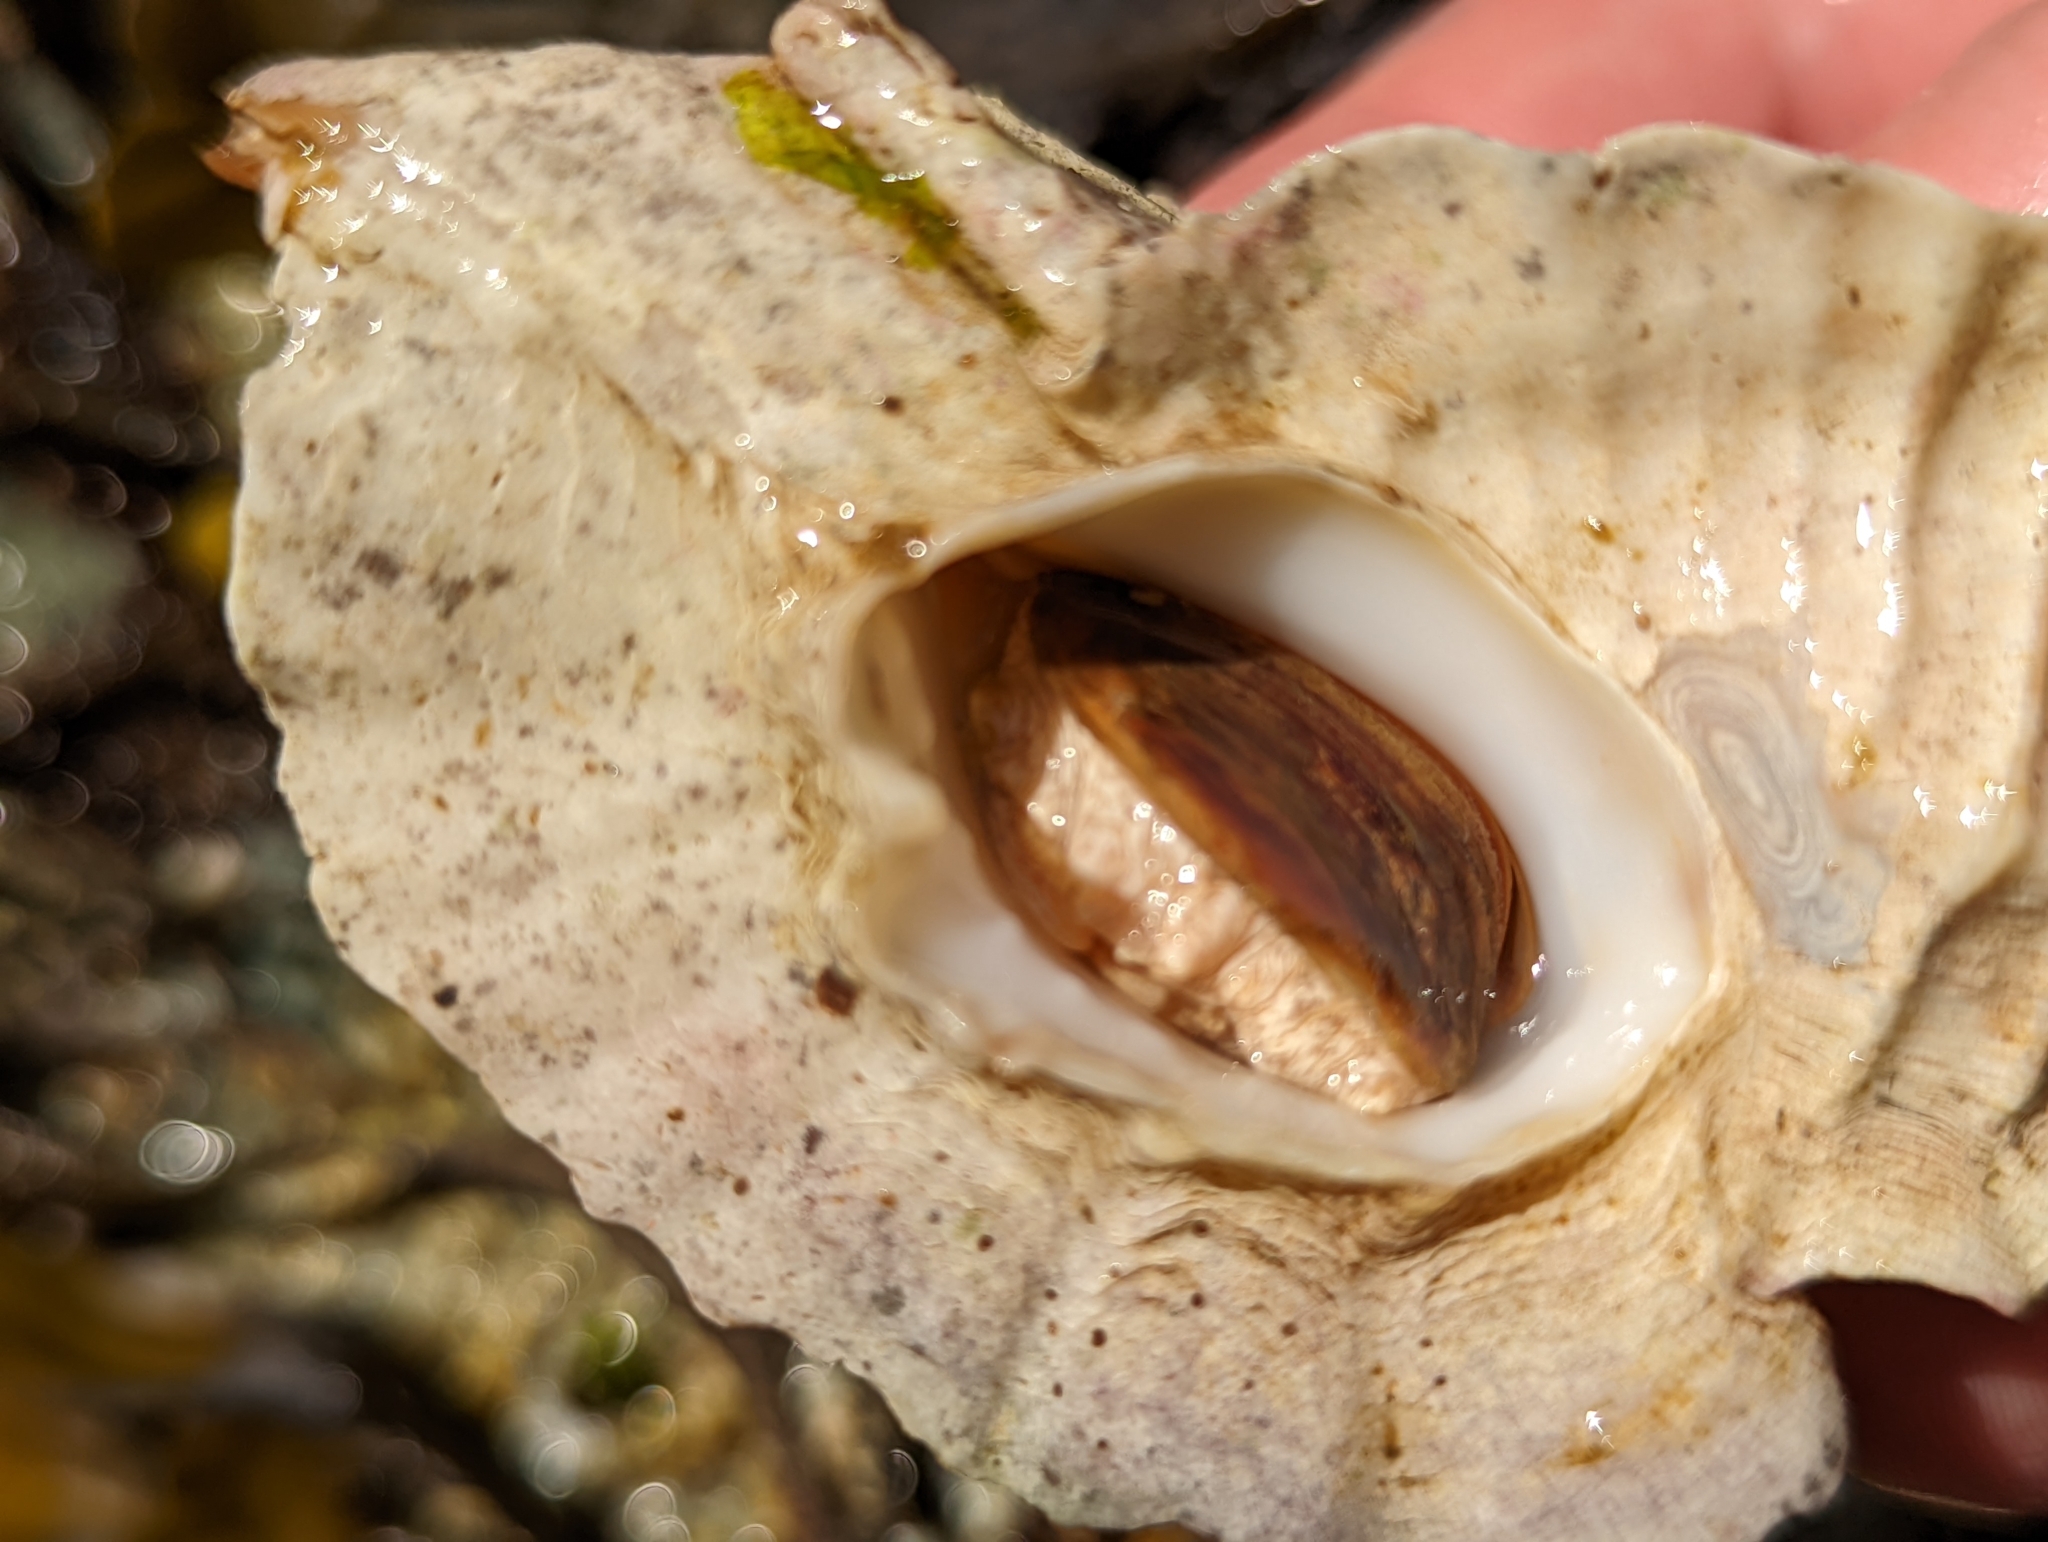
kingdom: Animalia
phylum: Mollusca
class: Gastropoda
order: Neogastropoda
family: Muricidae
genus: Ceratostoma
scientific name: Ceratostoma foliatum
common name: Foliate thorn purpura
